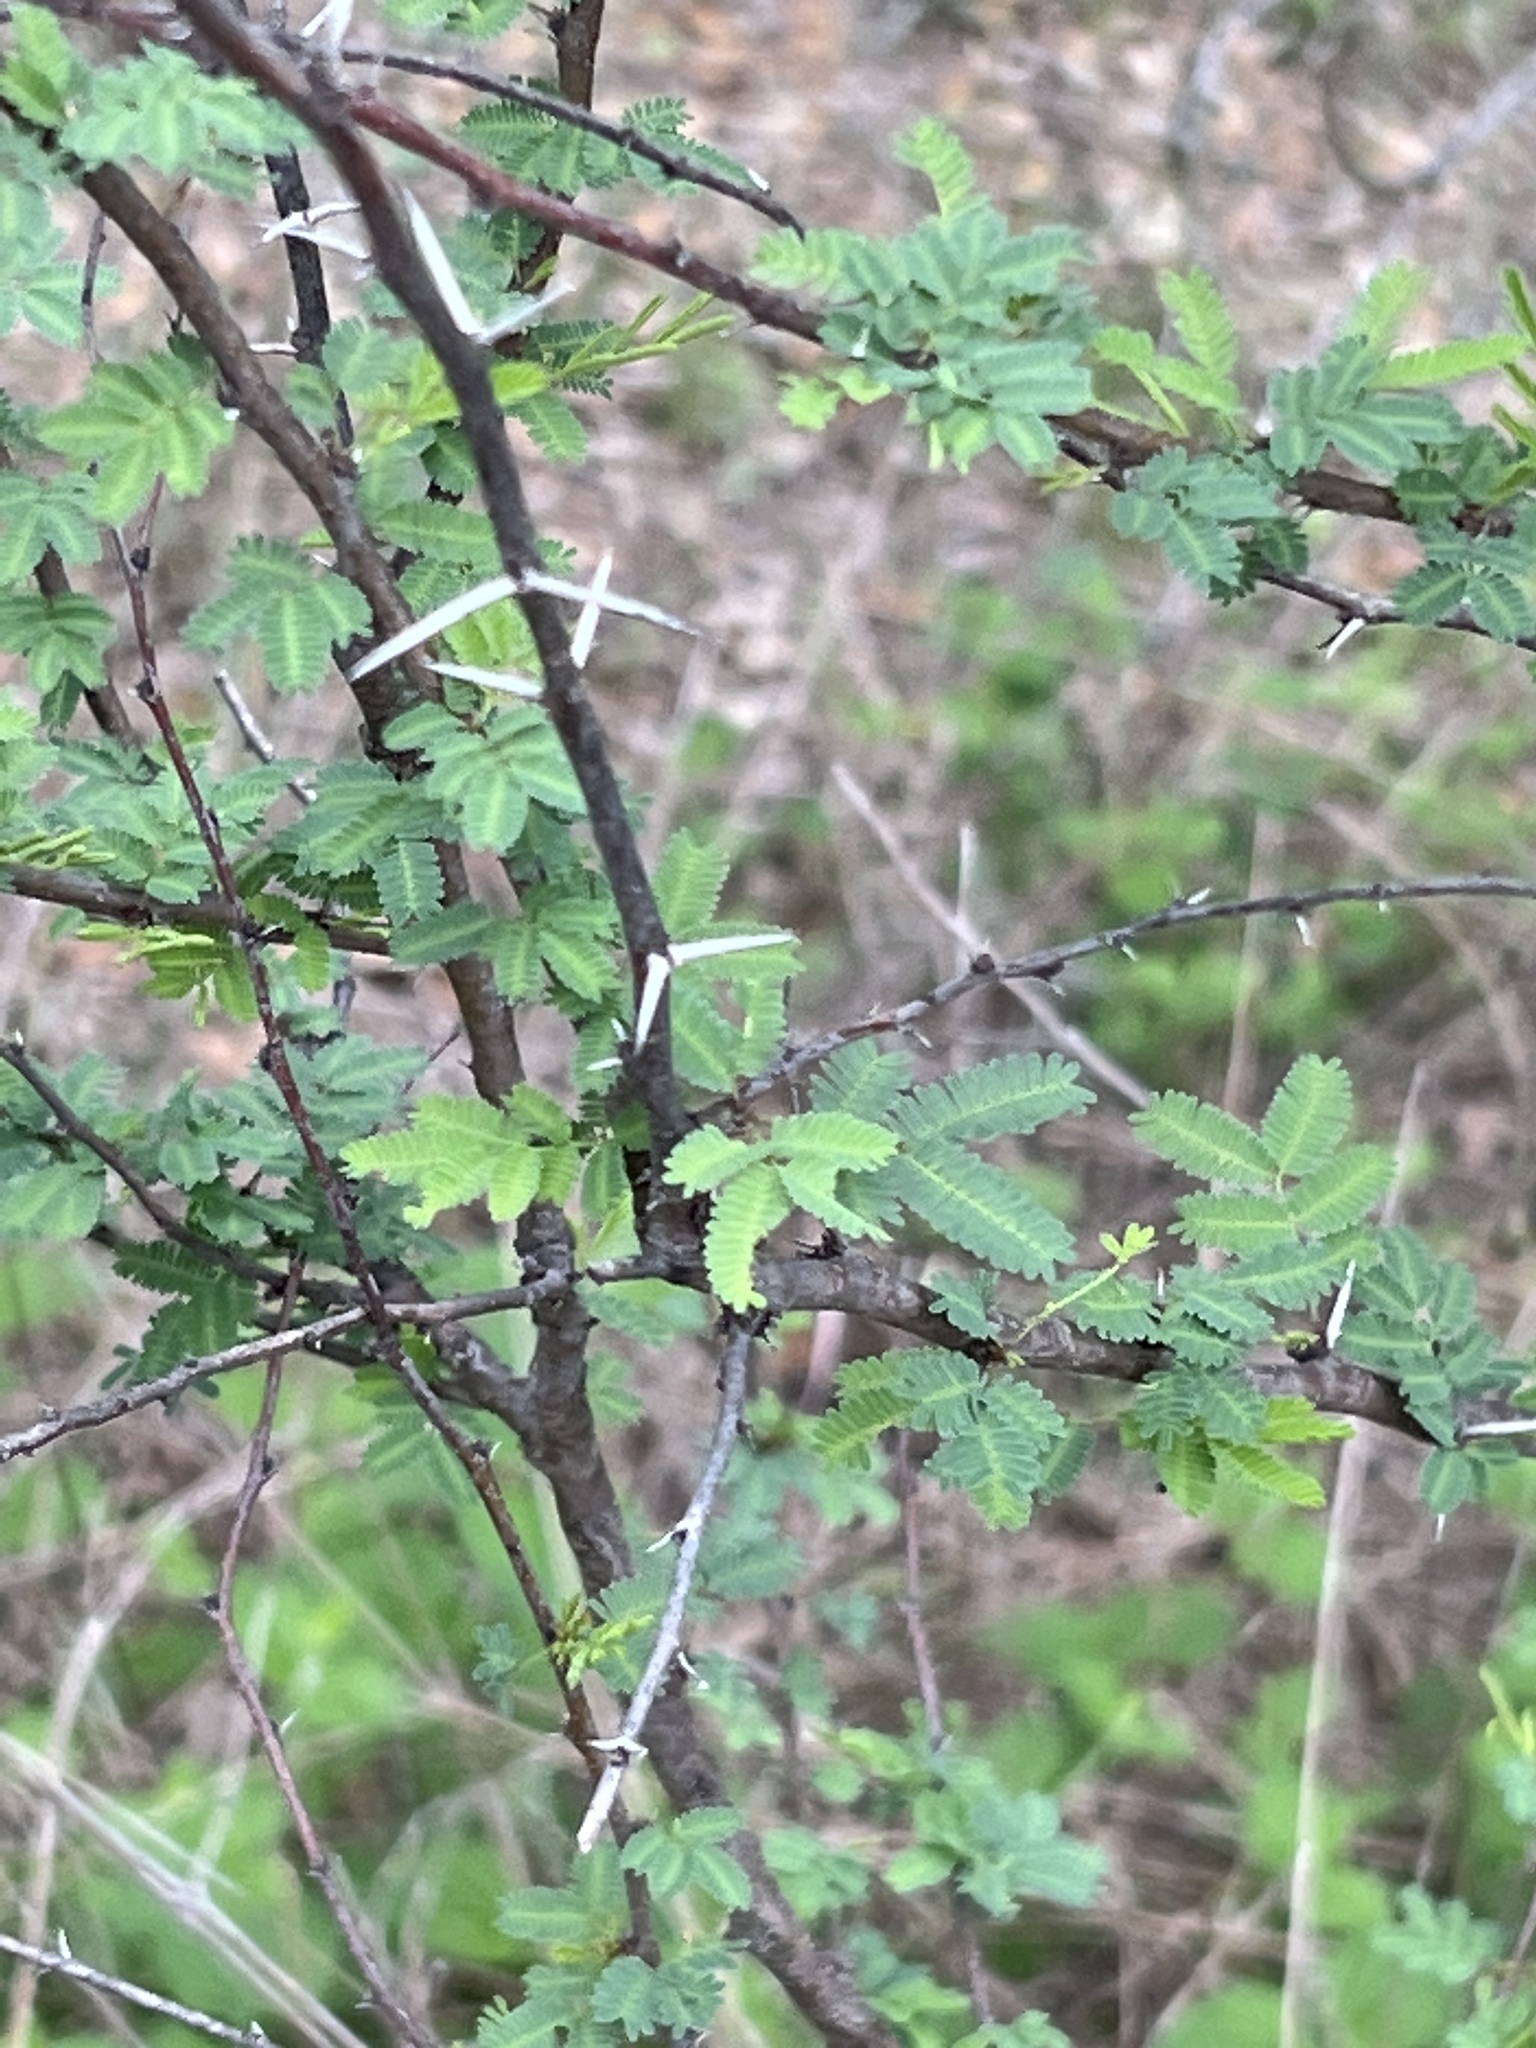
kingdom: Plantae
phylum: Tracheophyta
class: Magnoliopsida
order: Fabales
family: Fabaceae
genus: Vachellia
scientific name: Vachellia farnesiana
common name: Sweet acacia
